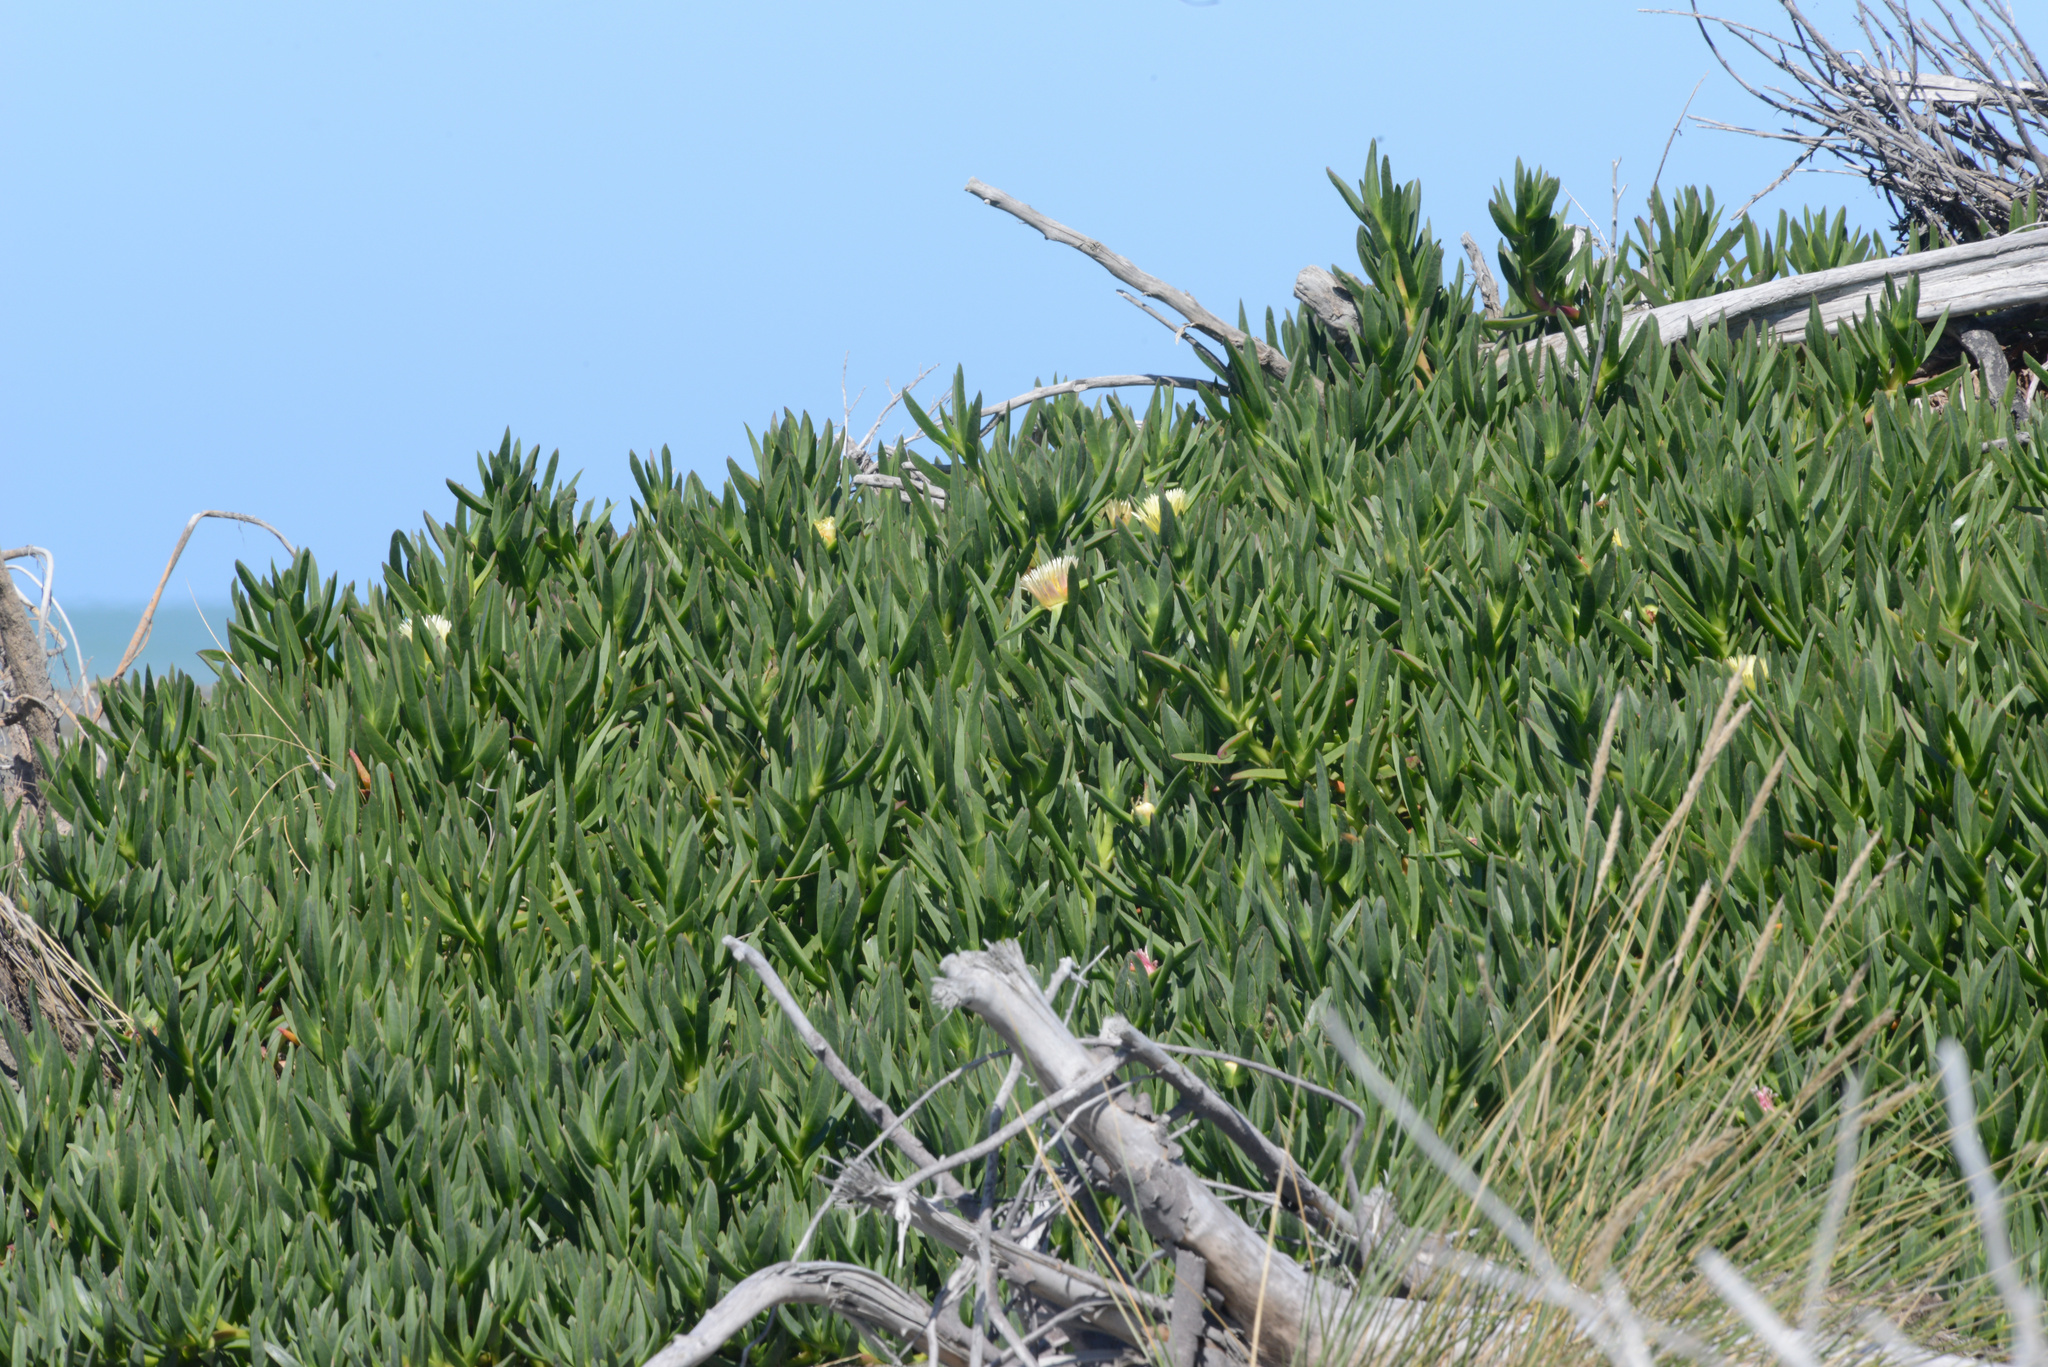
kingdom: Plantae
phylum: Tracheophyta
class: Magnoliopsida
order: Caryophyllales
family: Aizoaceae
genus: Carpobrotus
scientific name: Carpobrotus edulis
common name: Hottentot-fig
